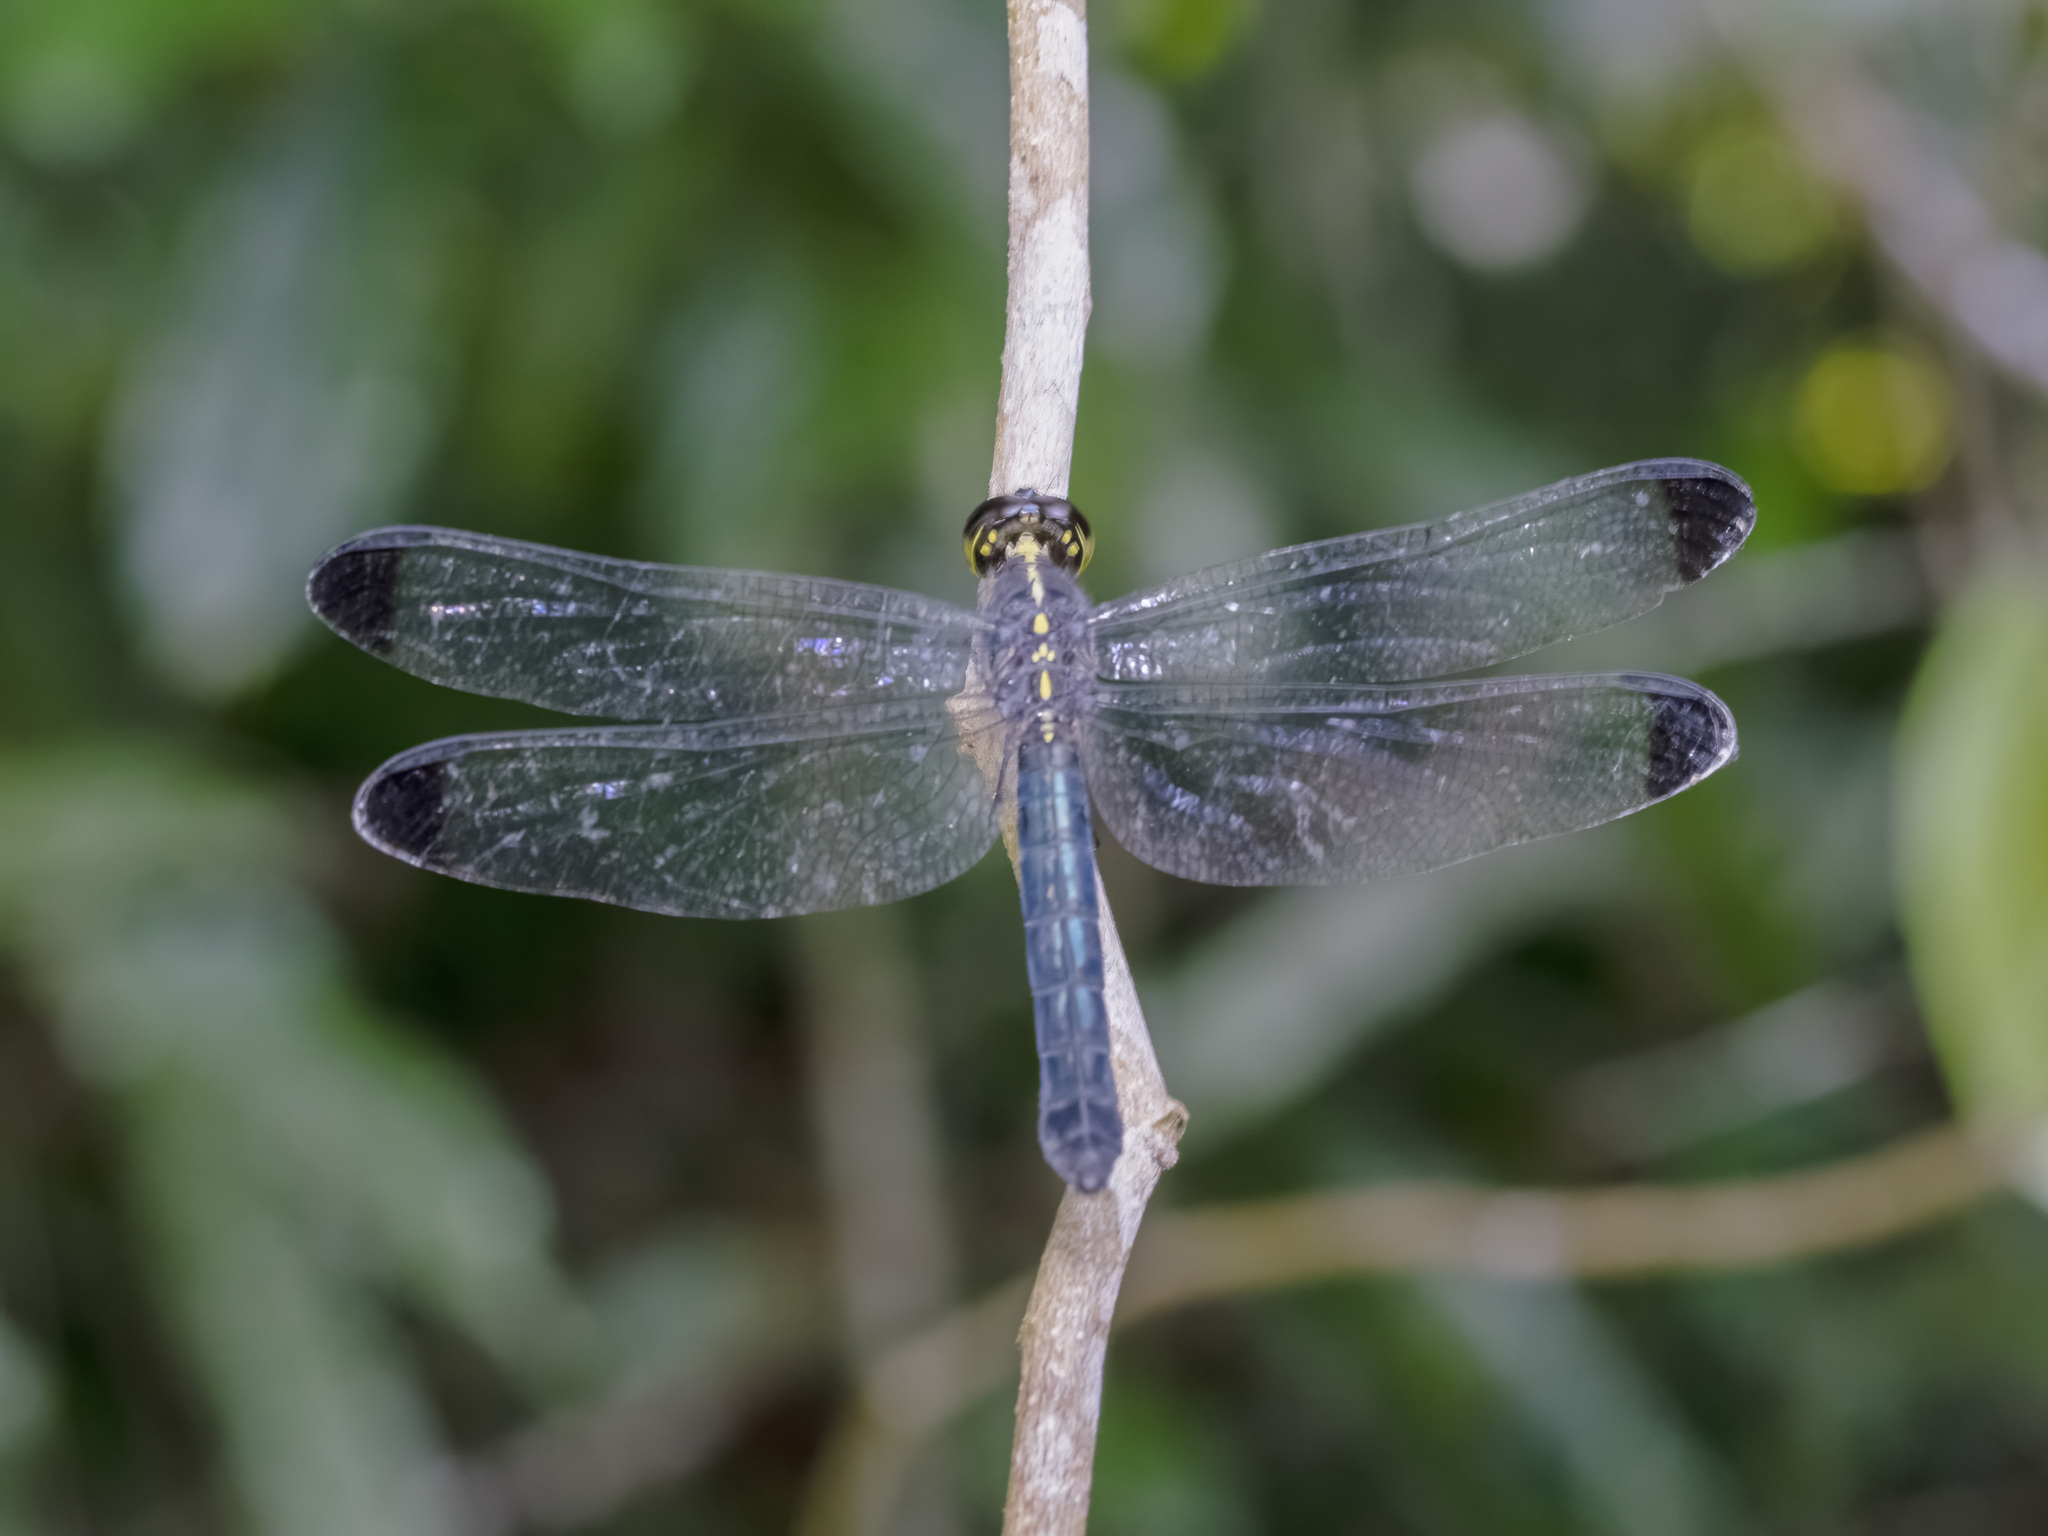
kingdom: Animalia
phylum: Arthropoda
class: Insecta
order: Odonata
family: Libellulidae
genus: Cratilla
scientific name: Cratilla metallica
